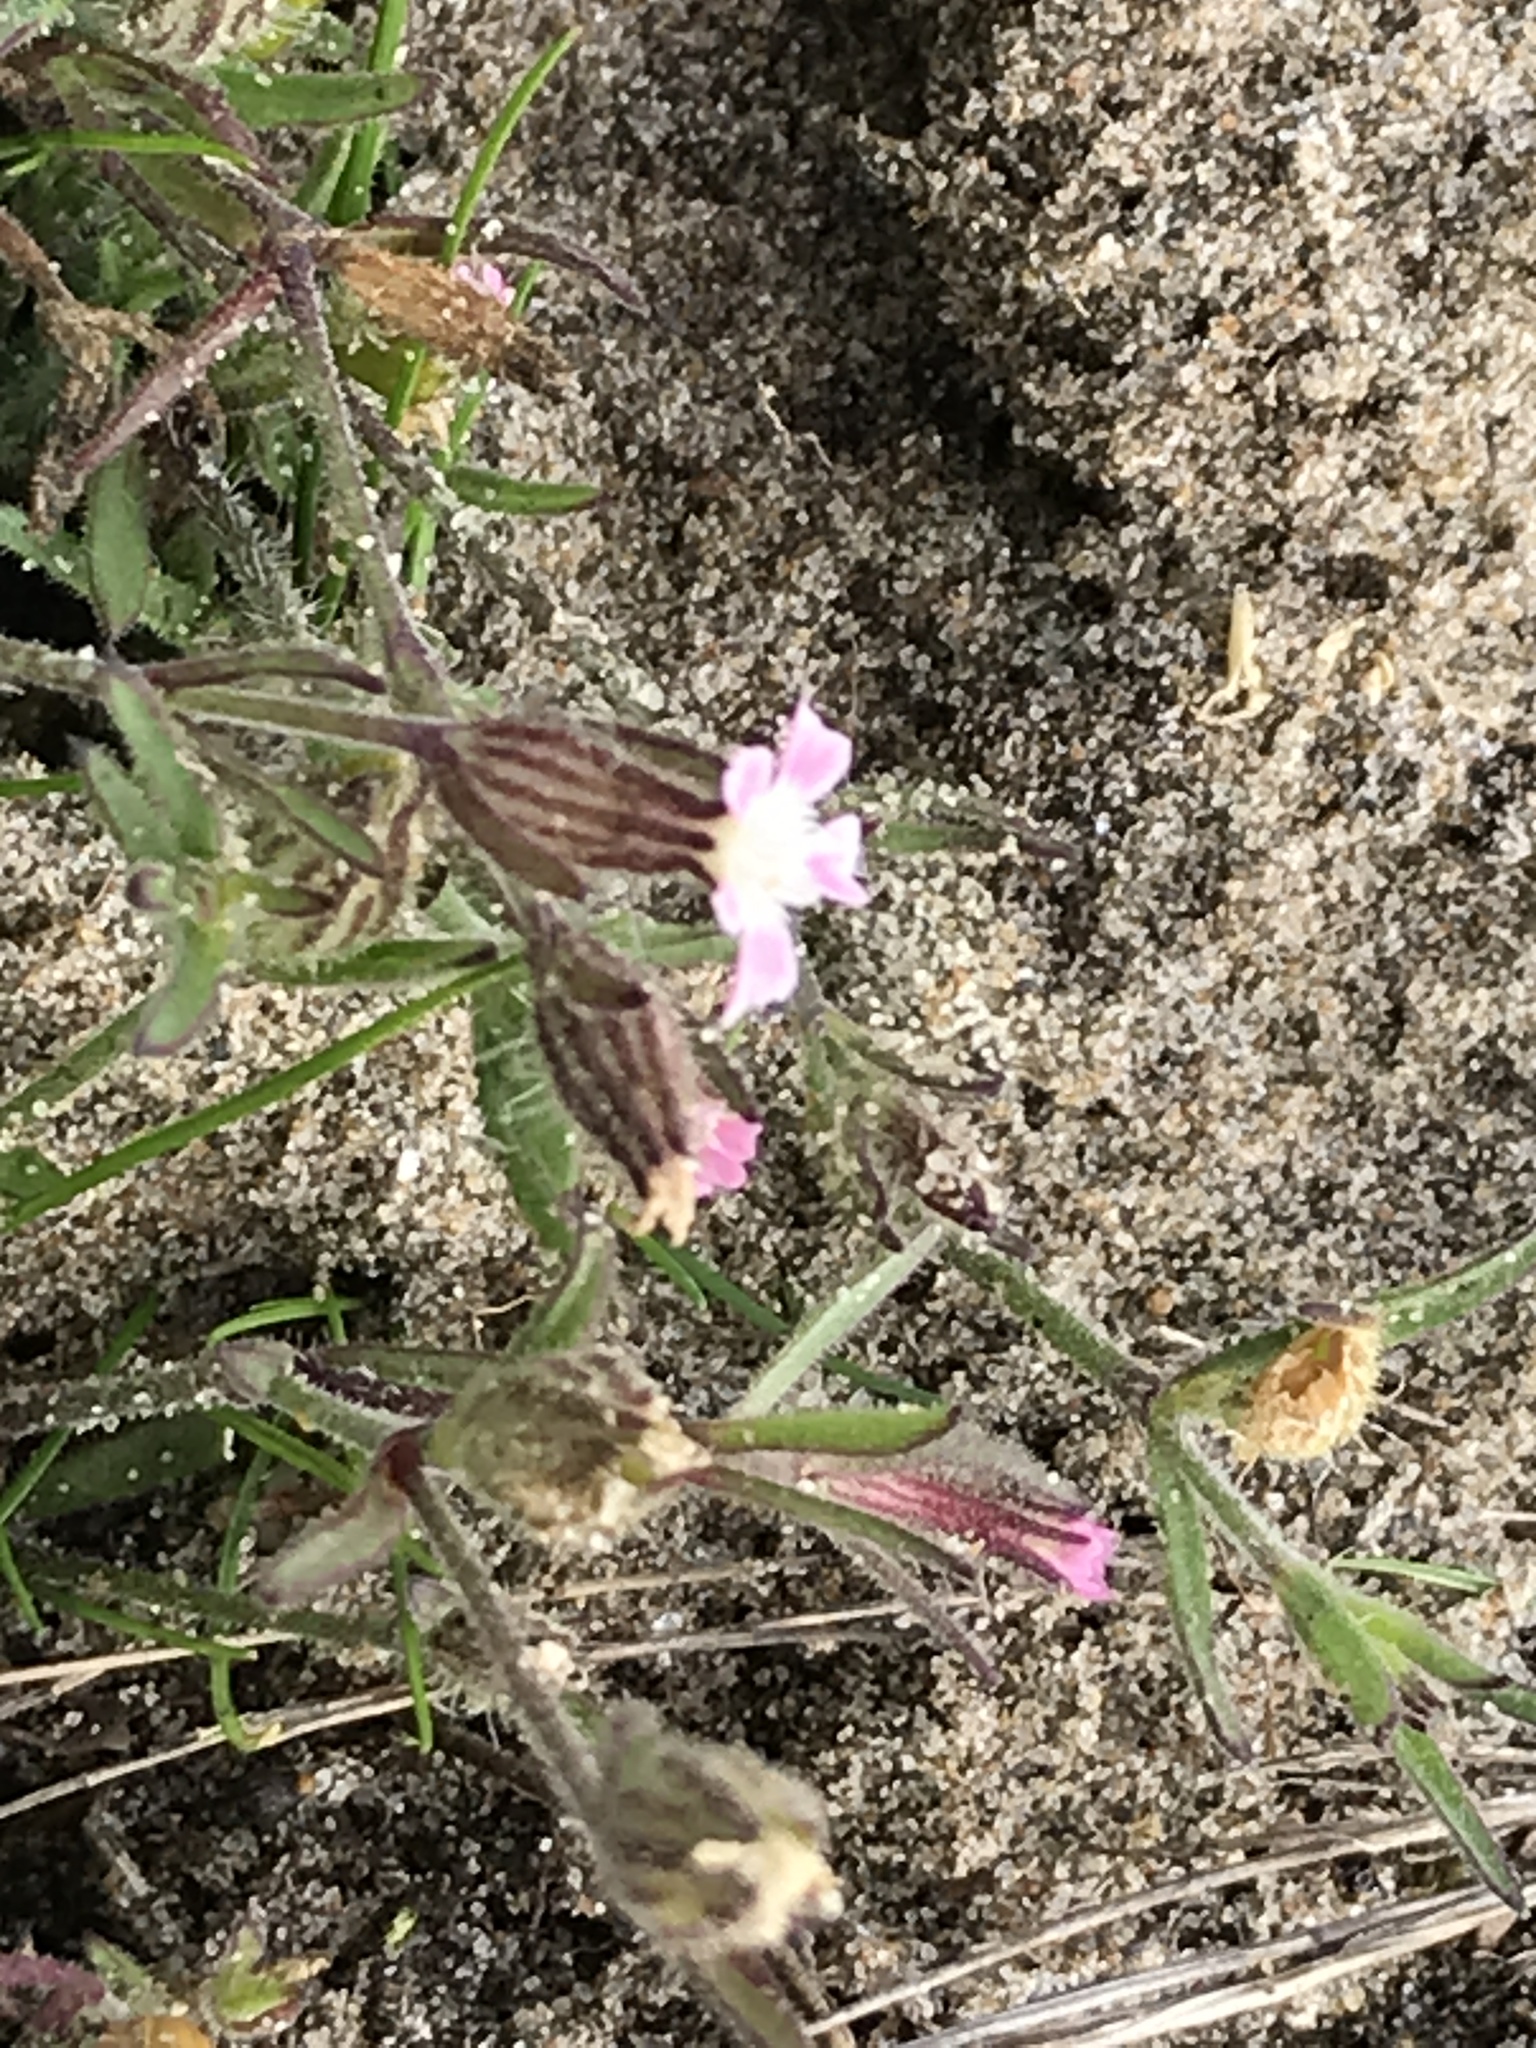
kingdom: Plantae
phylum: Tracheophyta
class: Magnoliopsida
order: Caryophyllales
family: Caryophyllaceae
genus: Silene
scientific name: Silene gallica
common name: Small-flowered catchfly
